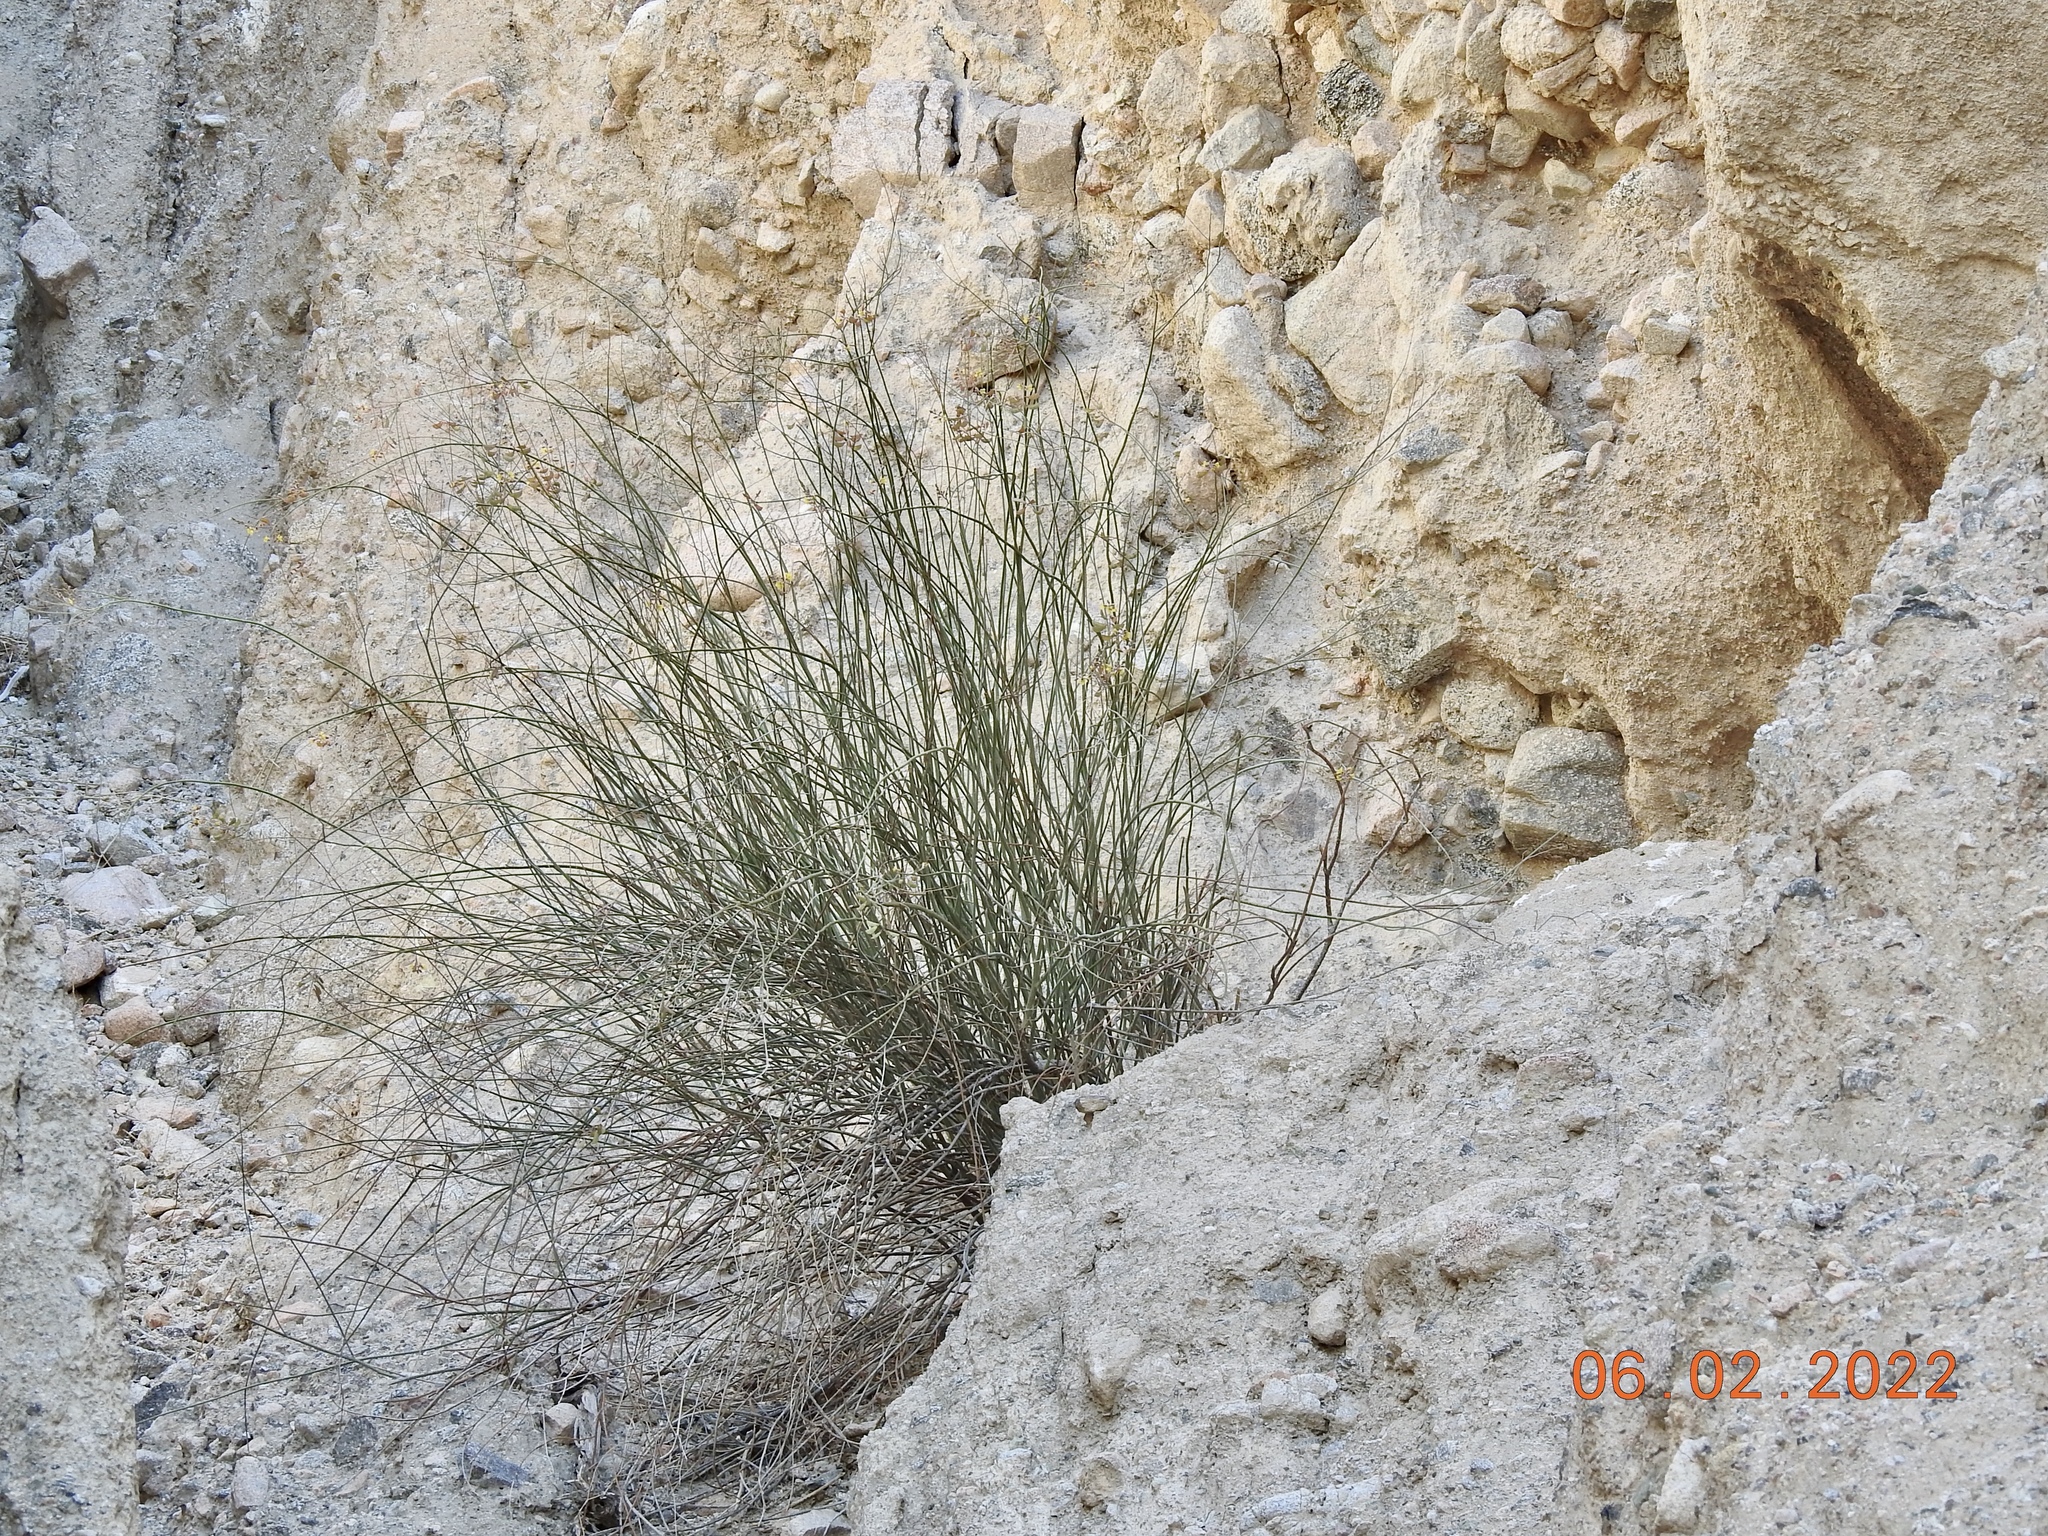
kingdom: Plantae
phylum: Tracheophyta
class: Magnoliopsida
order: Fabales
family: Fabaceae
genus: Hoffmannseggia
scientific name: Hoffmannseggia microphylla
